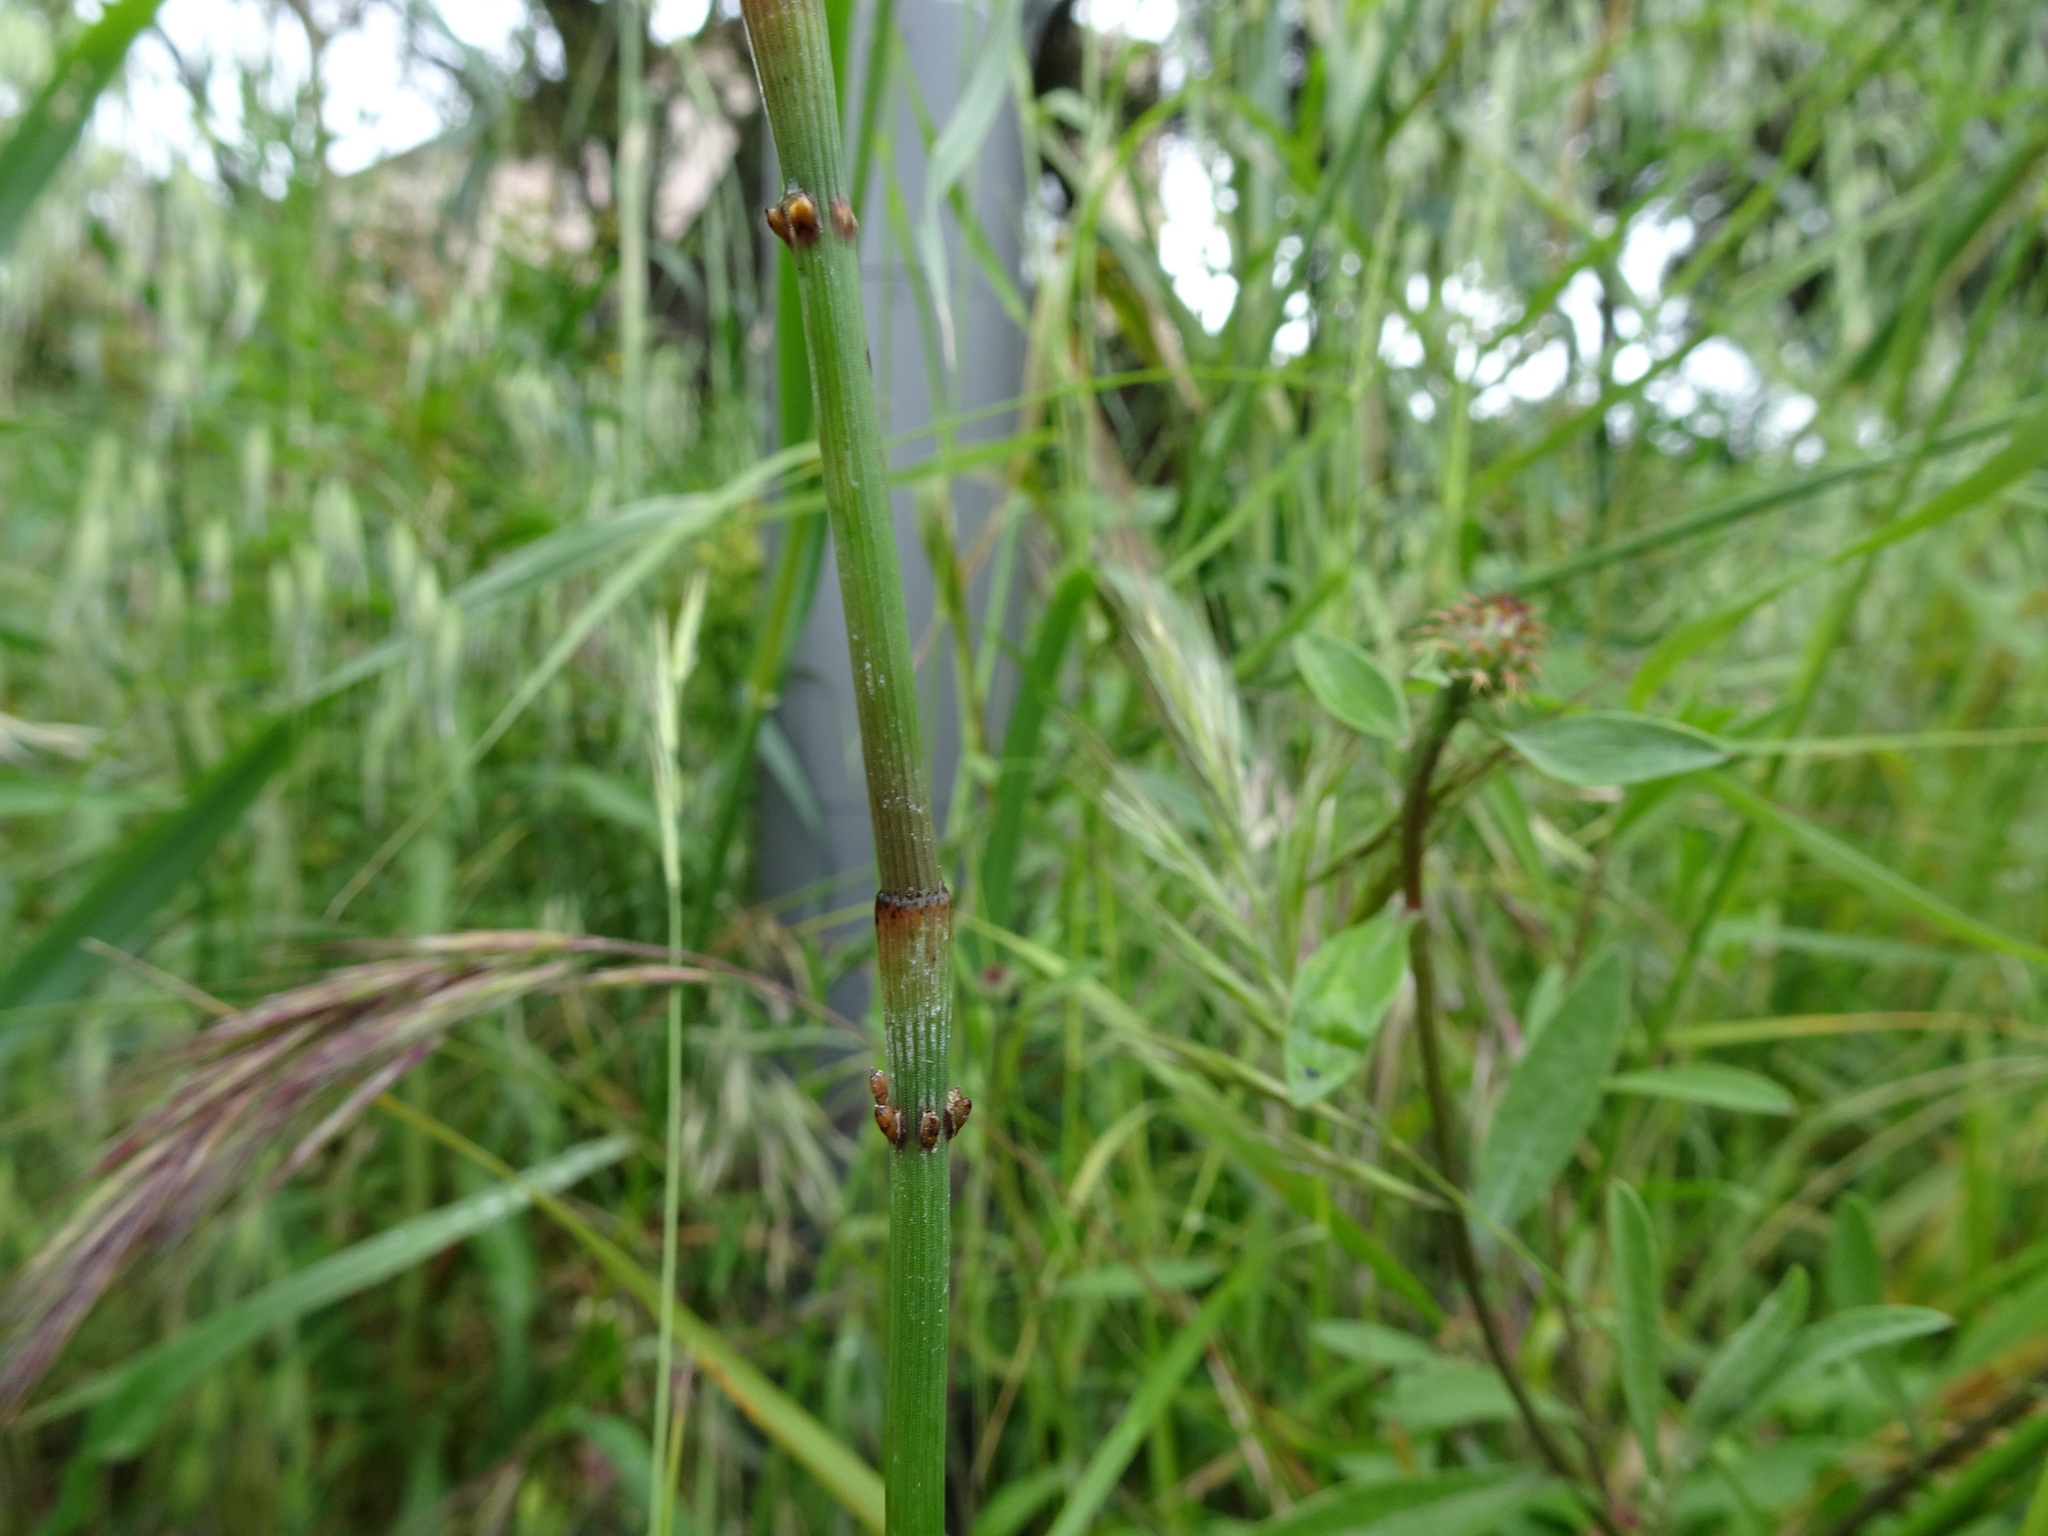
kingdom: Plantae
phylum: Tracheophyta
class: Polypodiopsida
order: Equisetales
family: Equisetaceae
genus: Equisetum
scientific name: Equisetum ramosissimum
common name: Branched horsetail
